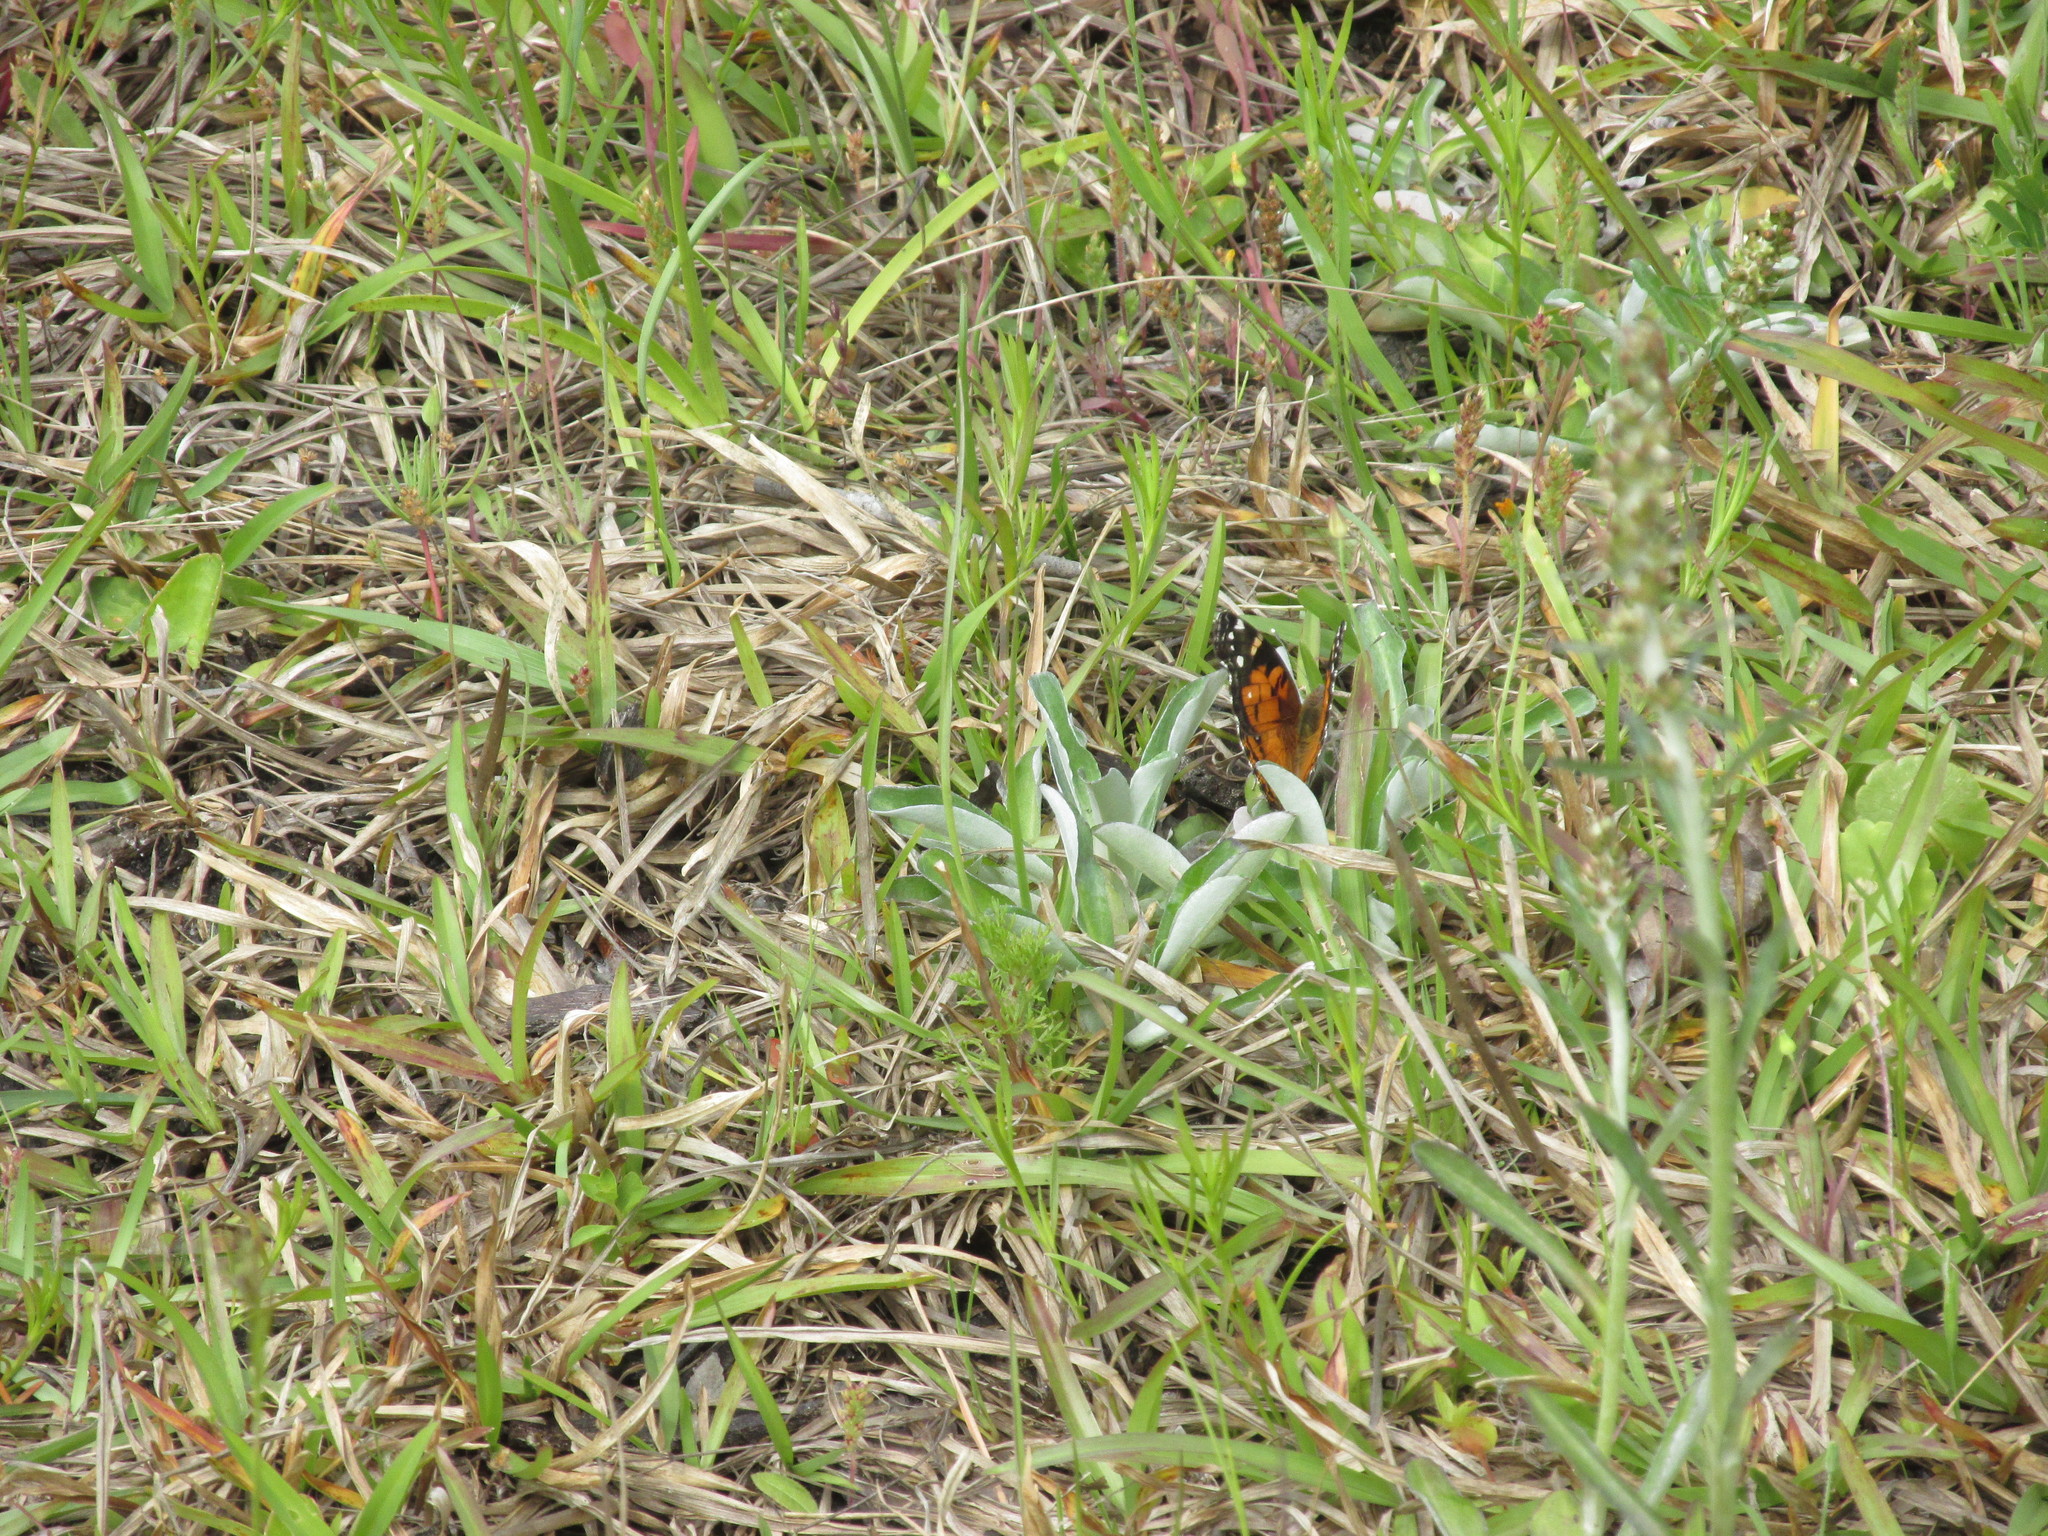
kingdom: Animalia
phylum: Arthropoda
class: Insecta
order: Lepidoptera
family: Nymphalidae
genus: Vanessa
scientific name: Vanessa virginiensis
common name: American lady
